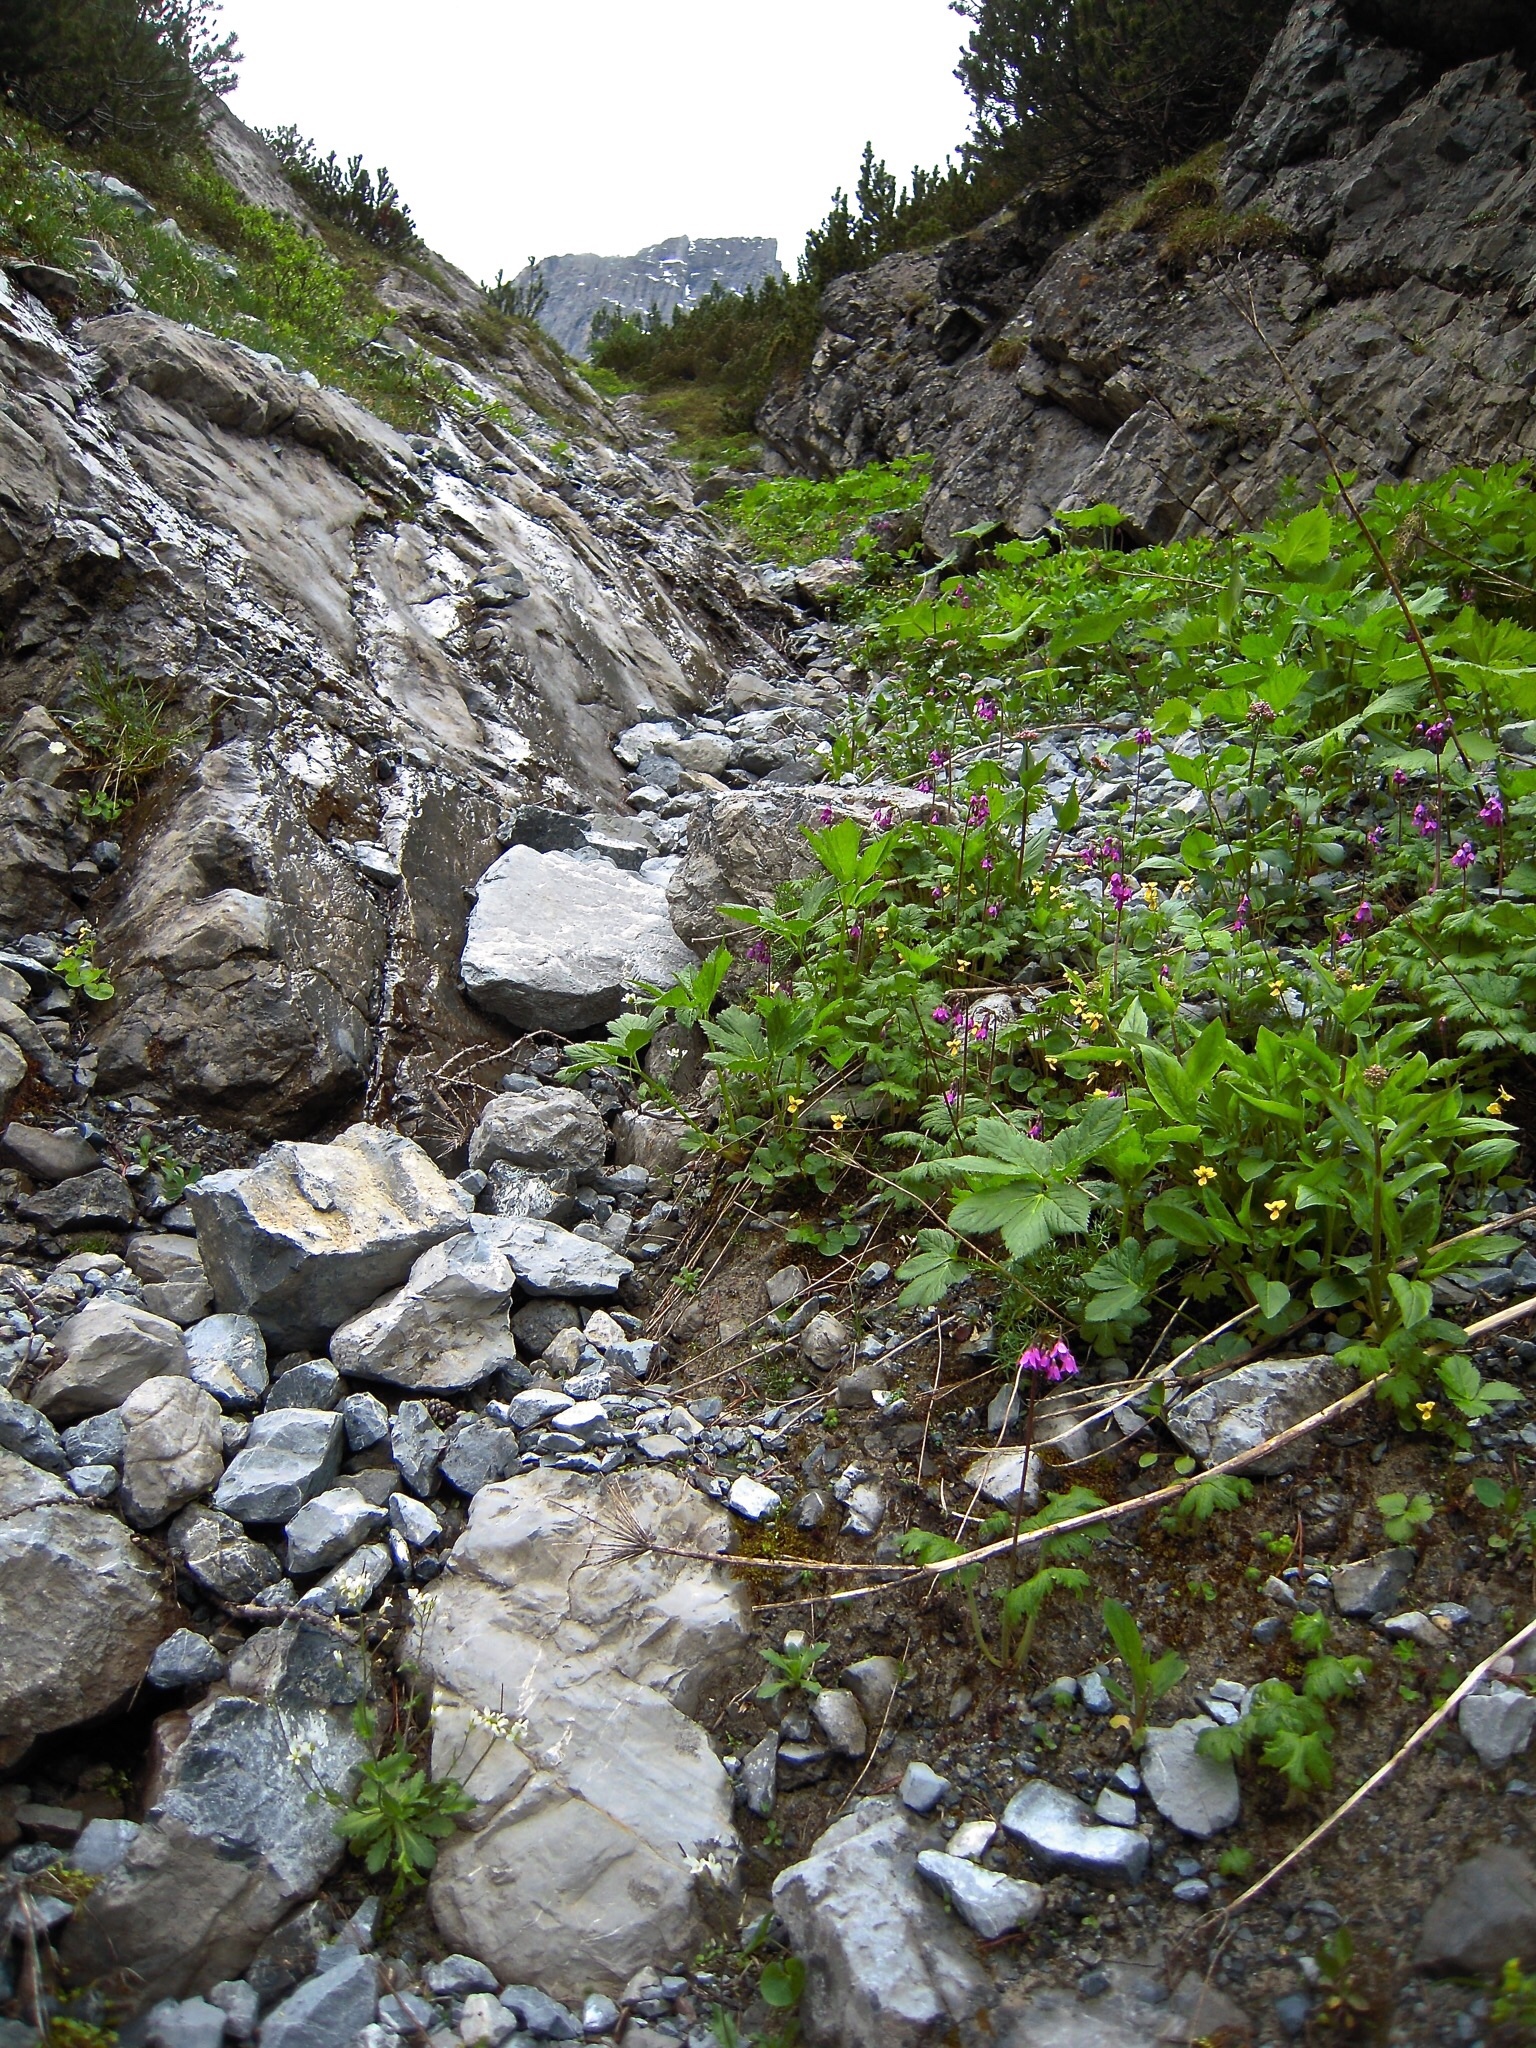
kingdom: Plantae
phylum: Tracheophyta
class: Magnoliopsida
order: Ericales
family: Primulaceae
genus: Primula
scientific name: Primula matthioli
